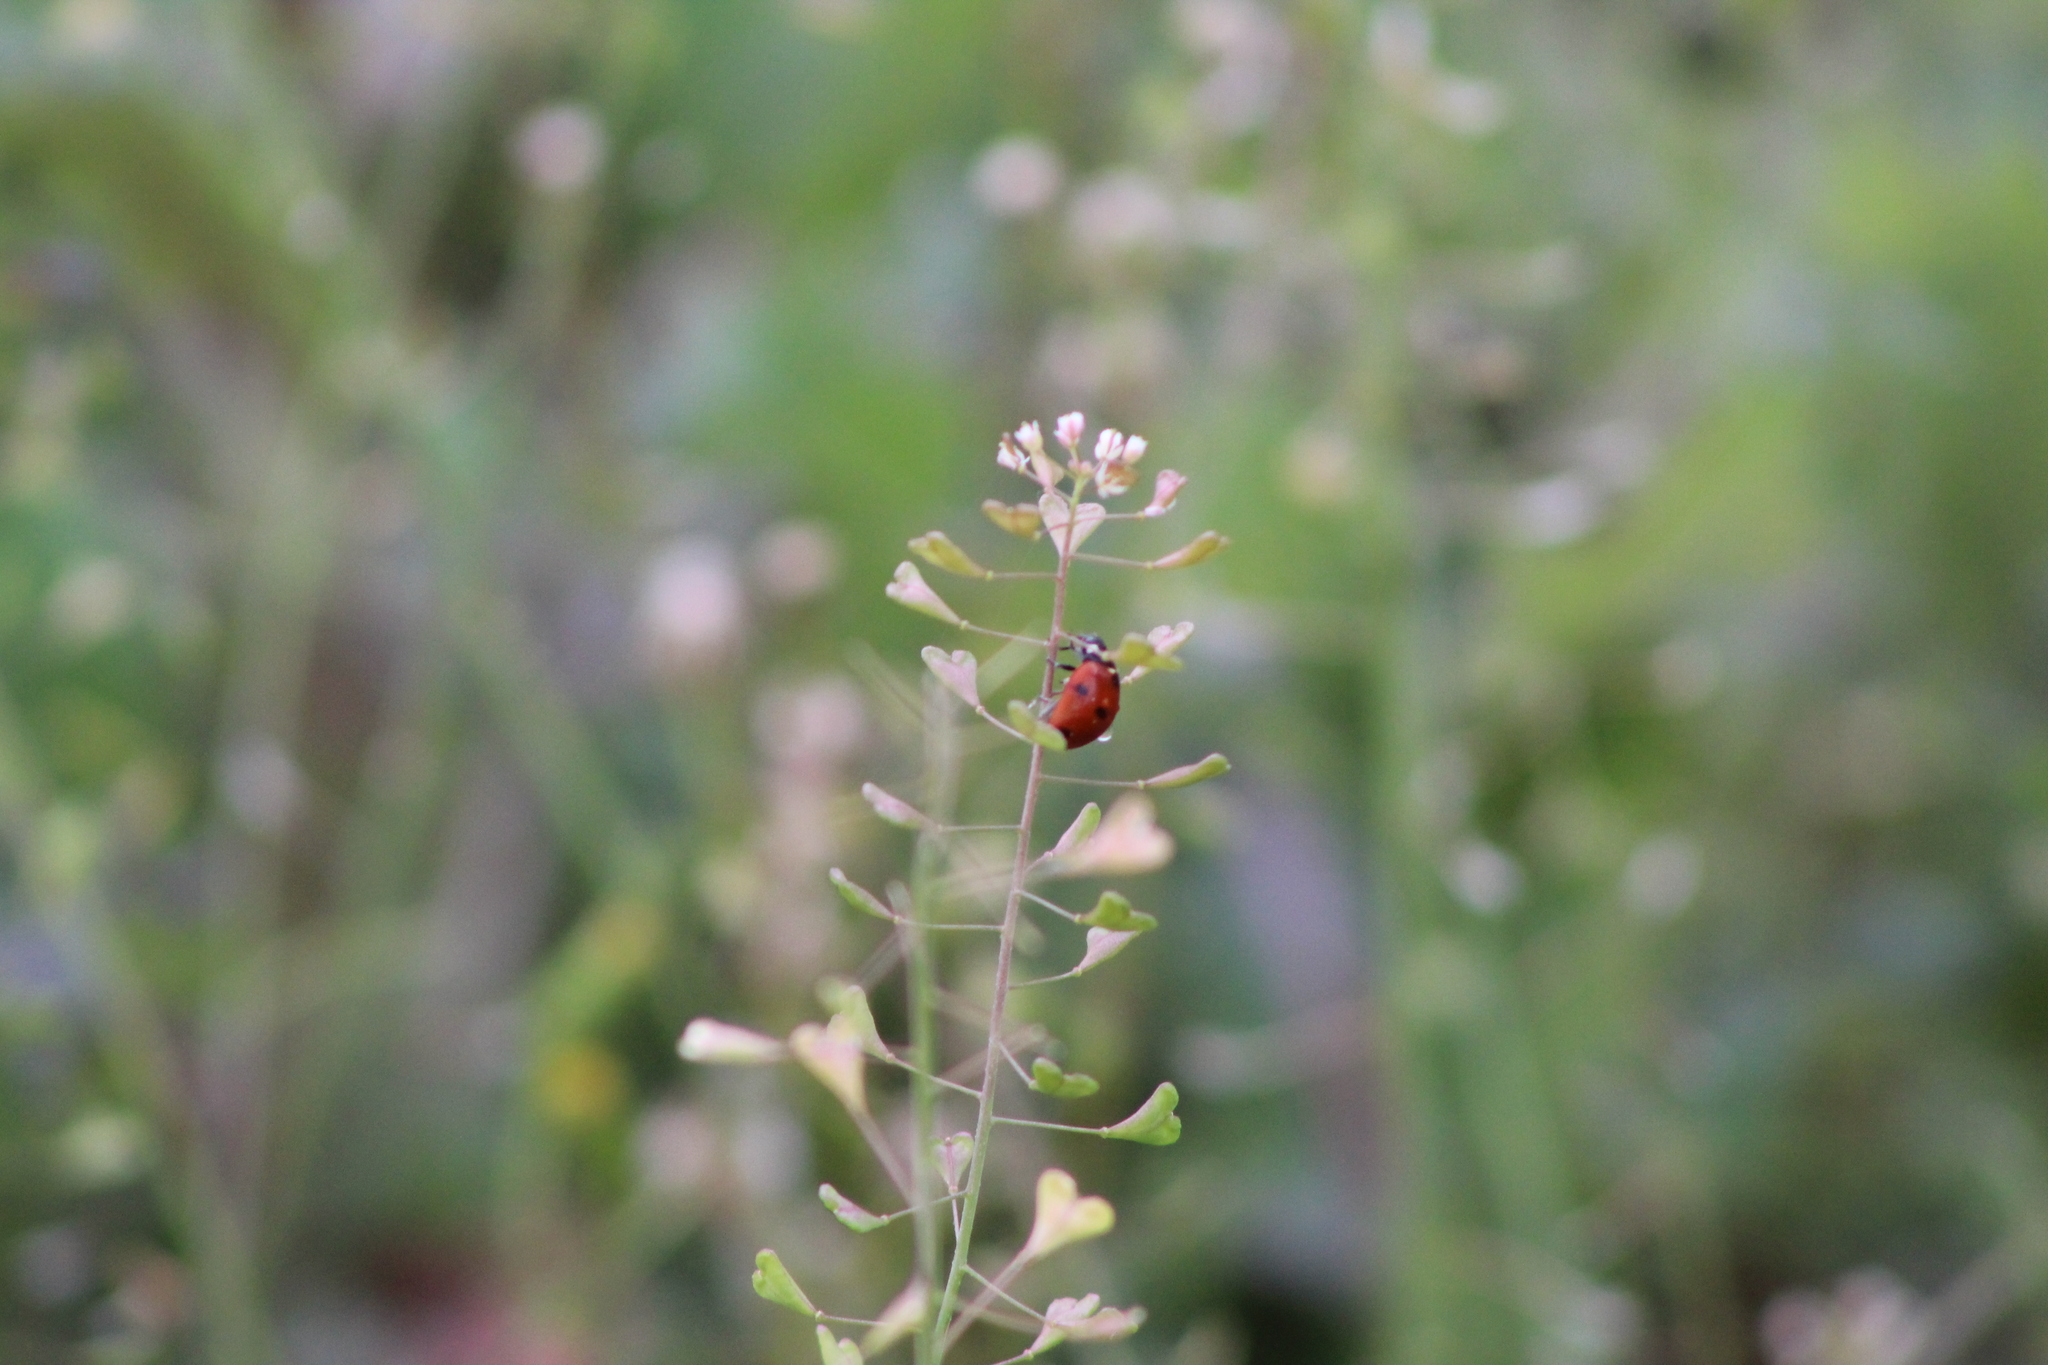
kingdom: Animalia
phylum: Arthropoda
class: Insecta
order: Coleoptera
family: Coccinellidae
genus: Coccinella
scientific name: Coccinella septempunctata
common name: Sevenspotted lady beetle
